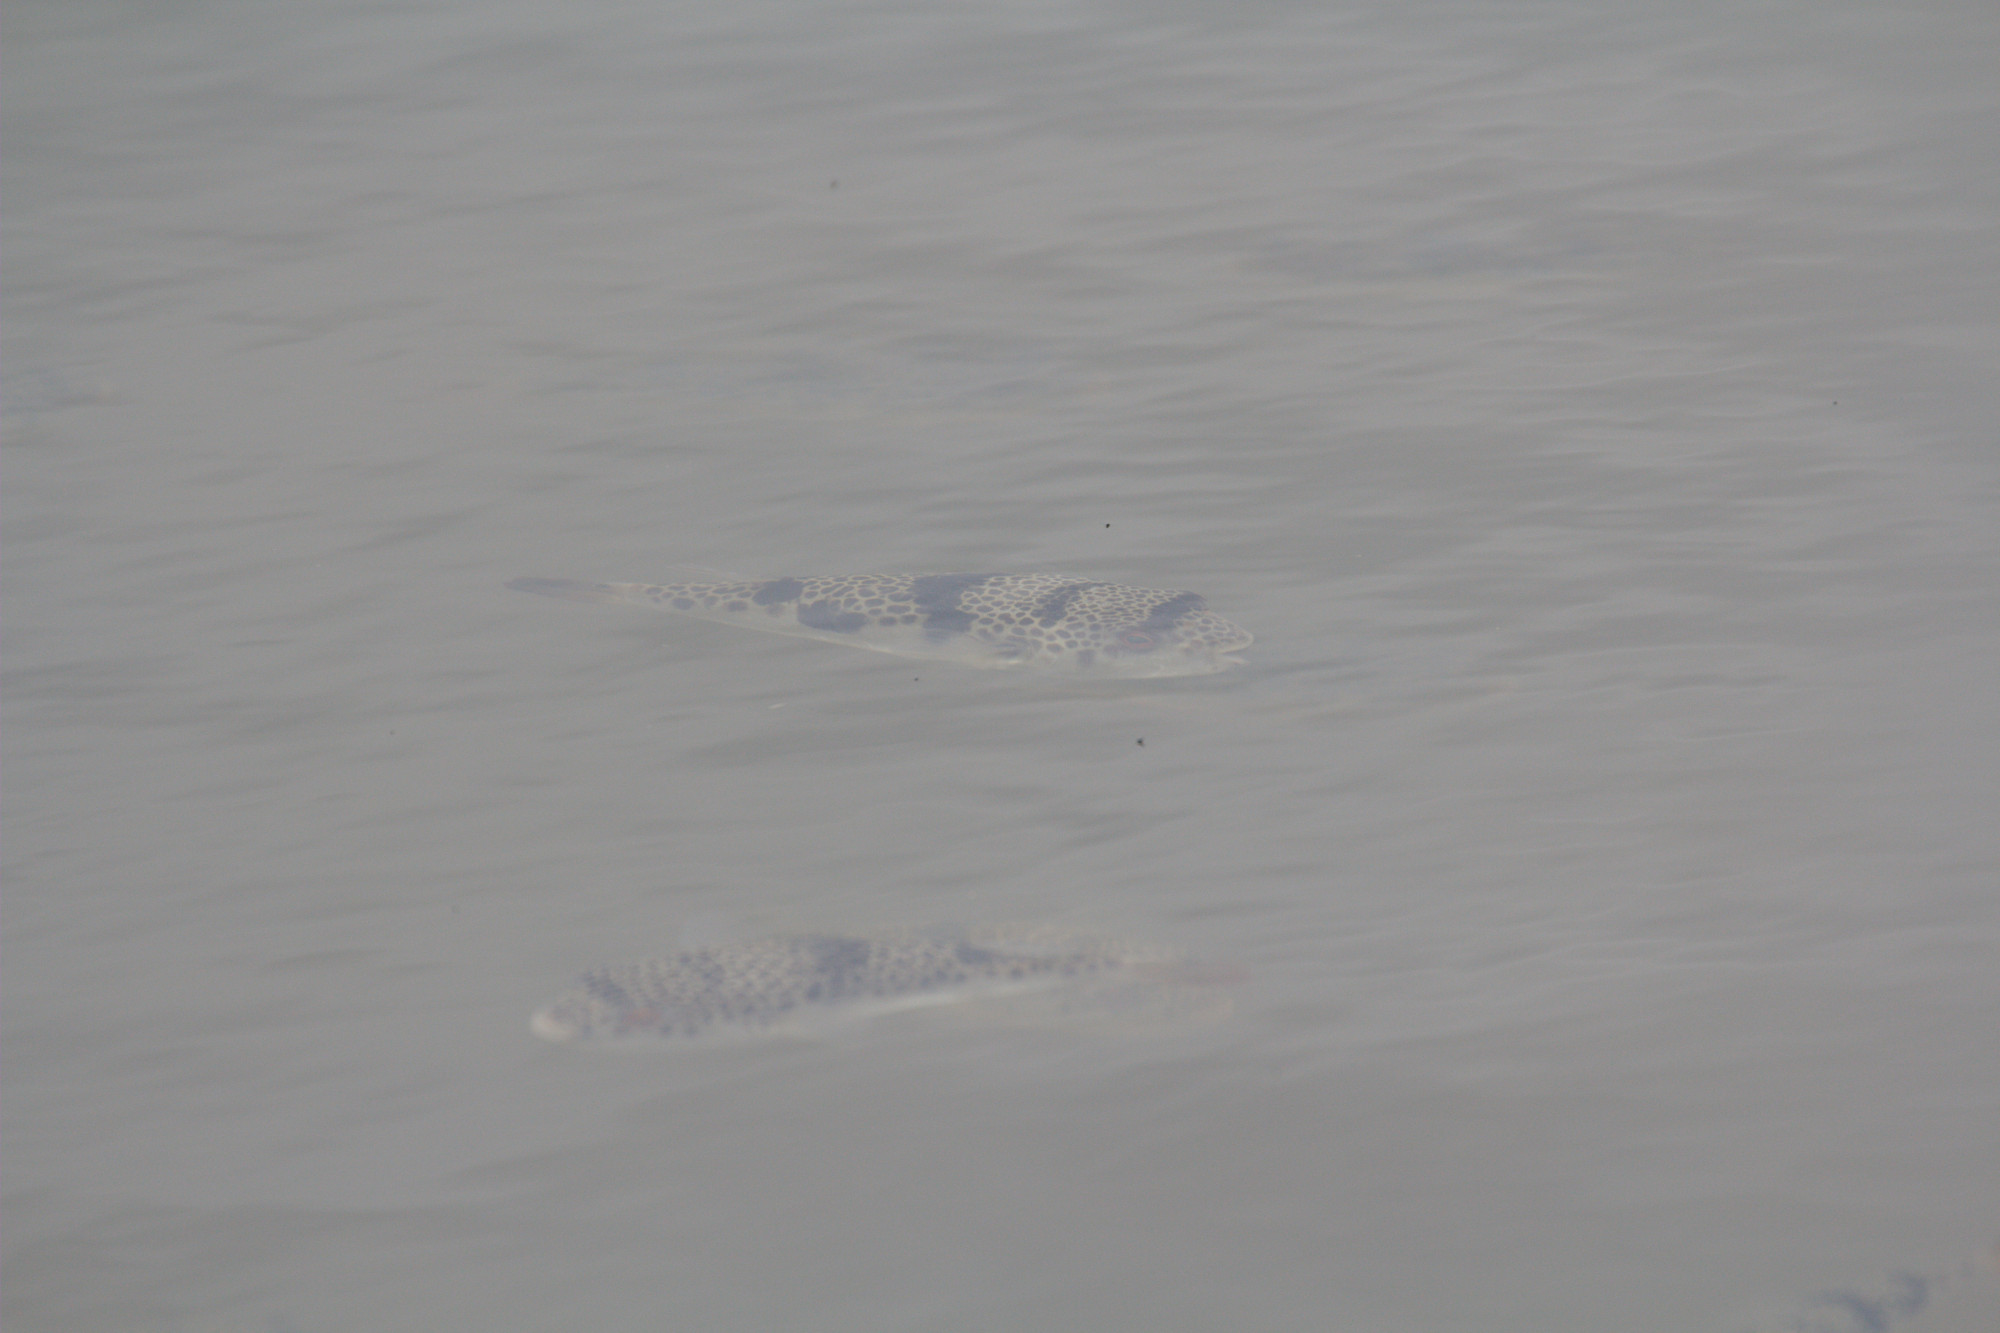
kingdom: Animalia
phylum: Chordata
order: Tetraodontiformes
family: Tetraodontidae
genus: Tetractenos
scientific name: Tetractenos glaber
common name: Smooth toadfish
